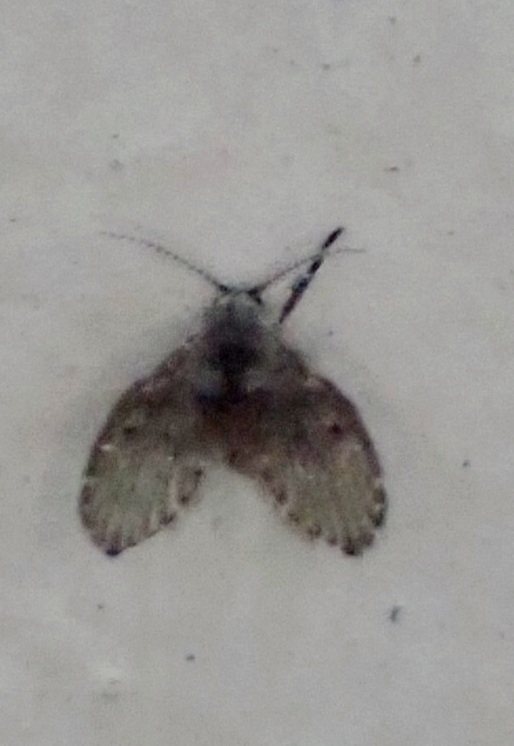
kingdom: Animalia
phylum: Arthropoda
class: Insecta
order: Diptera
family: Psychodidae
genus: Clogmia
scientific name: Clogmia albipunctatus
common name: White-spotted moth fly
